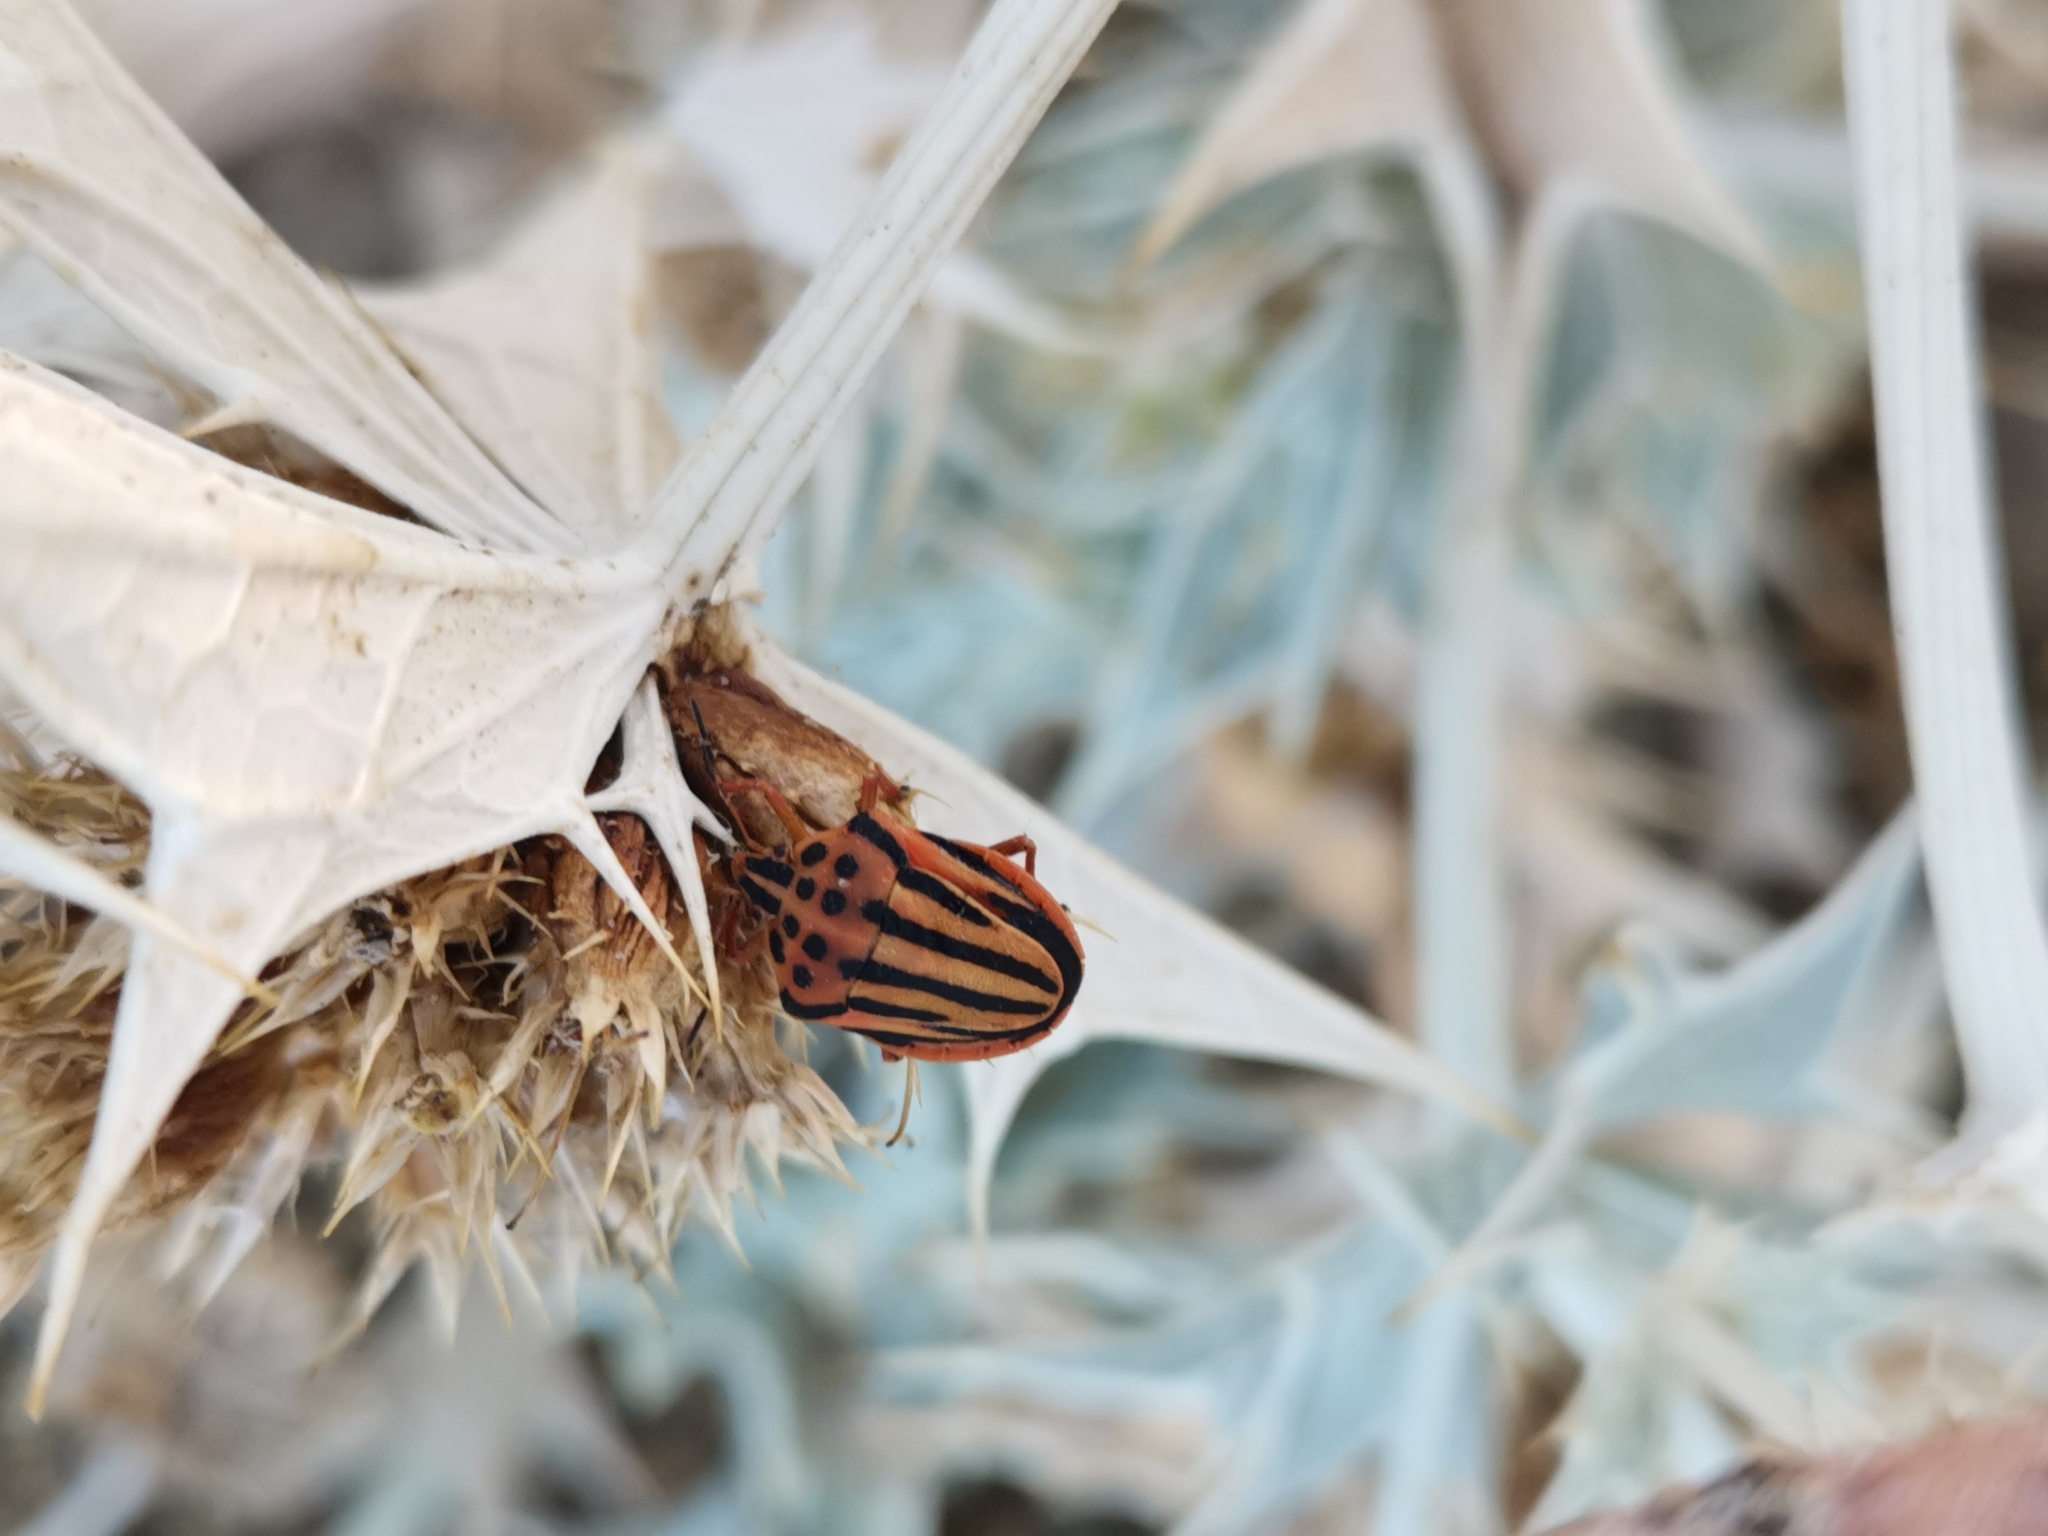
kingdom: Animalia
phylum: Arthropoda
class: Insecta
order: Hemiptera
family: Pentatomidae
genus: Graphosoma
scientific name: Graphosoma semipunctatum
